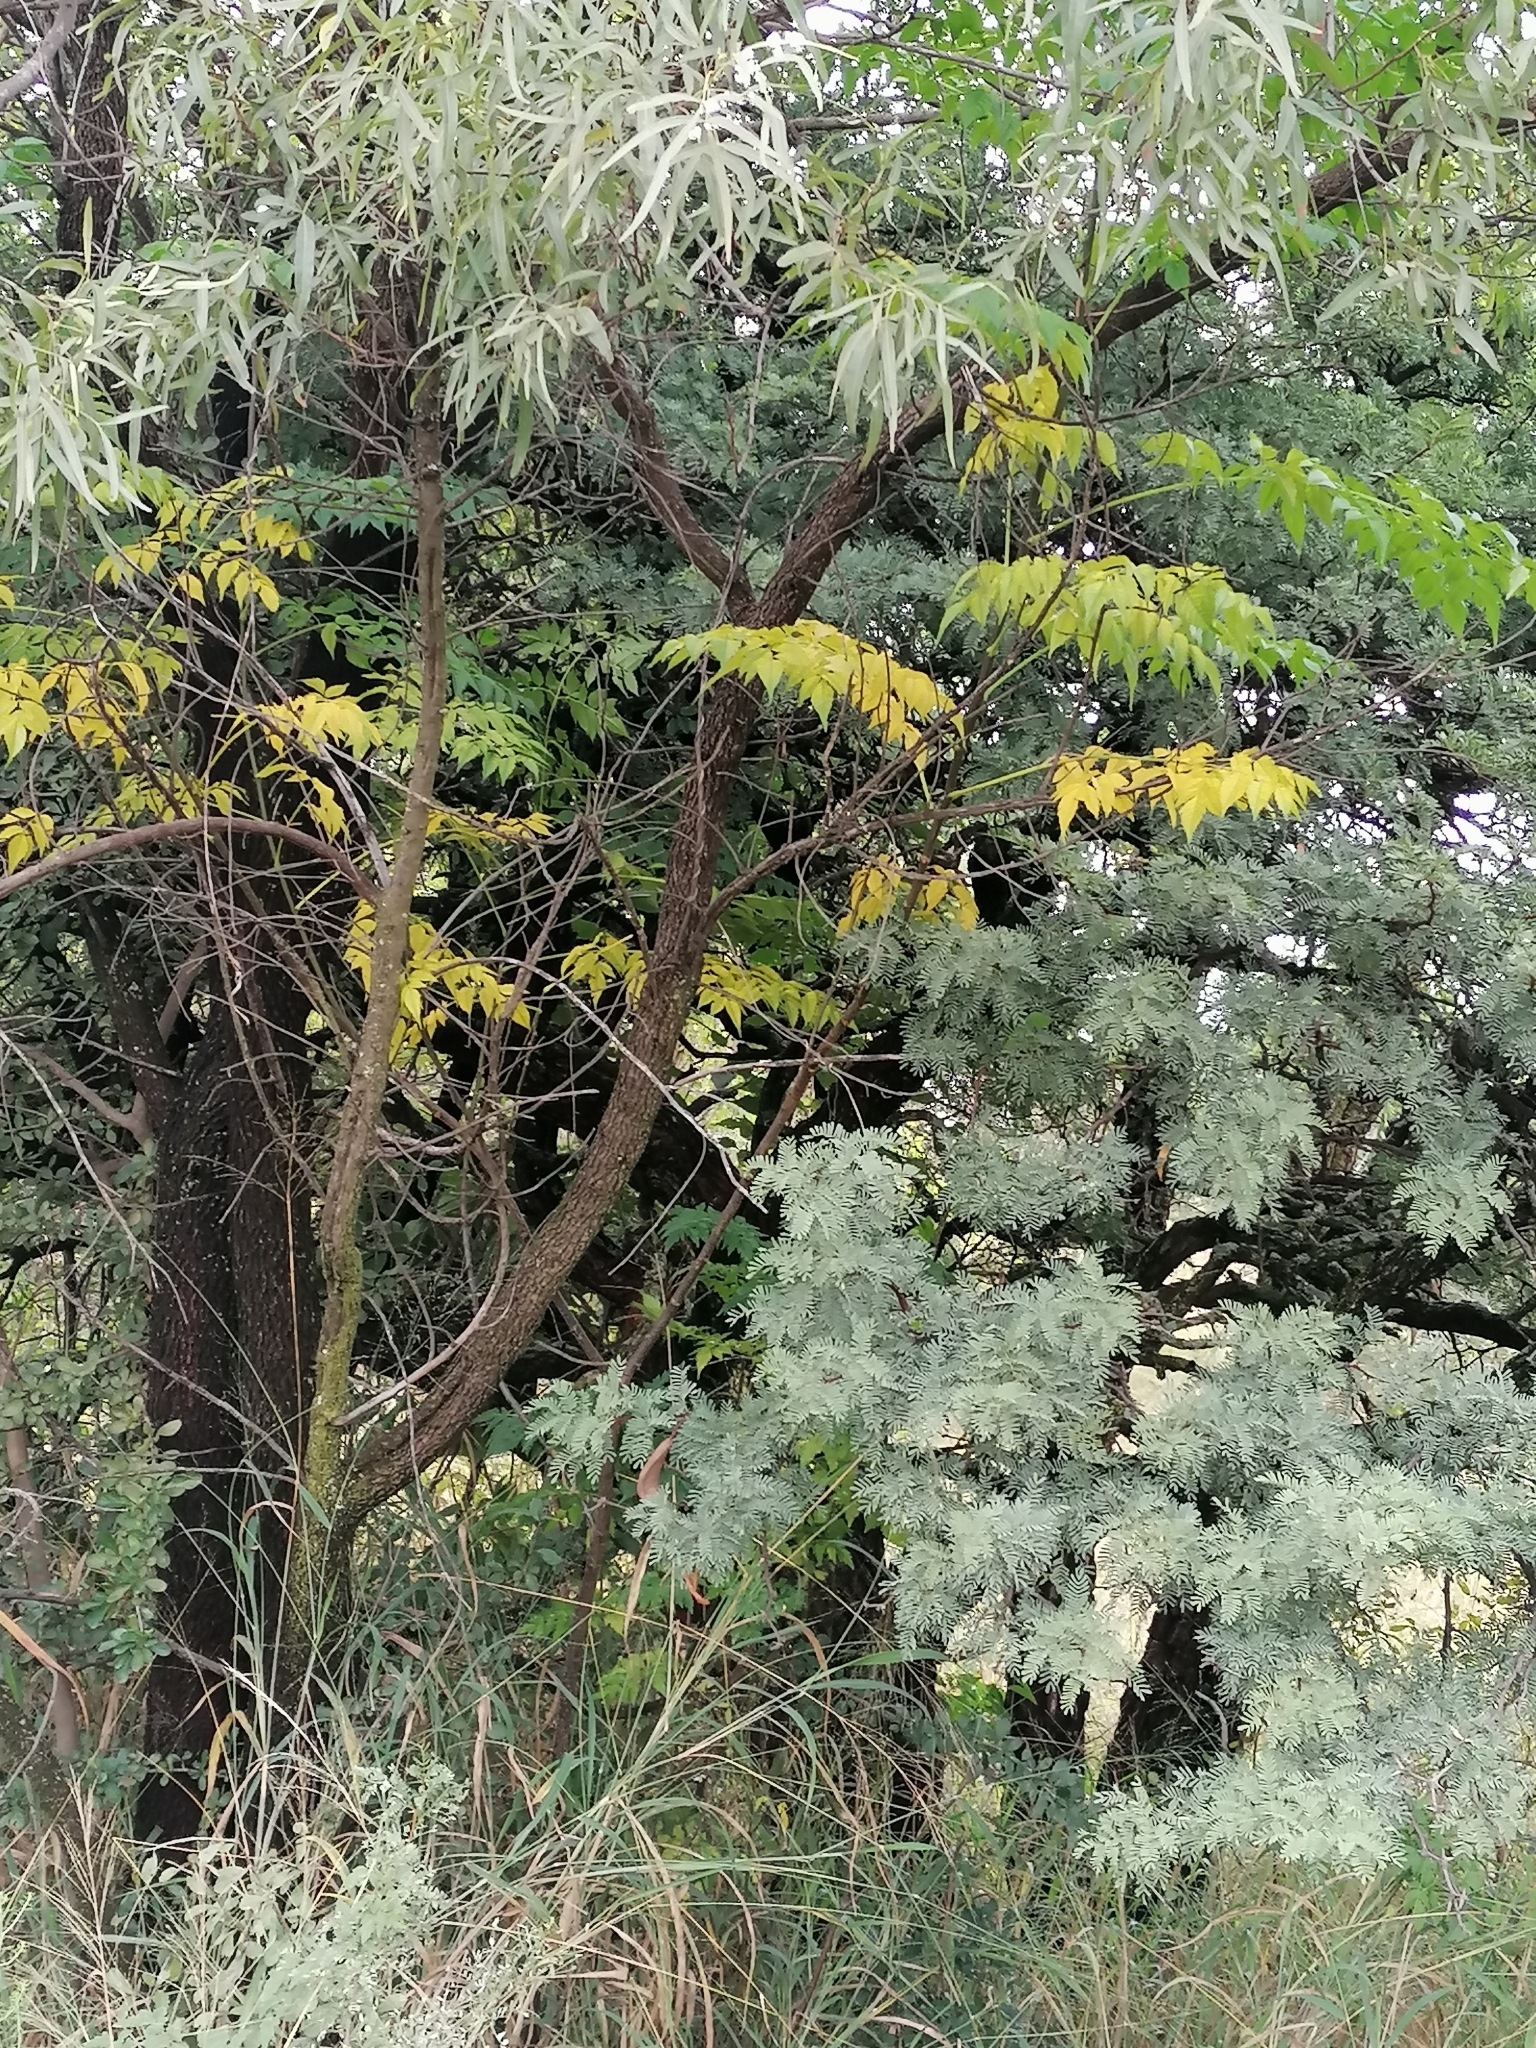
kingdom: Plantae
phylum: Tracheophyta
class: Magnoliopsida
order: Sapindales
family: Meliaceae
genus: Melia
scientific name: Melia azedarach
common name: Chinaberrytree
